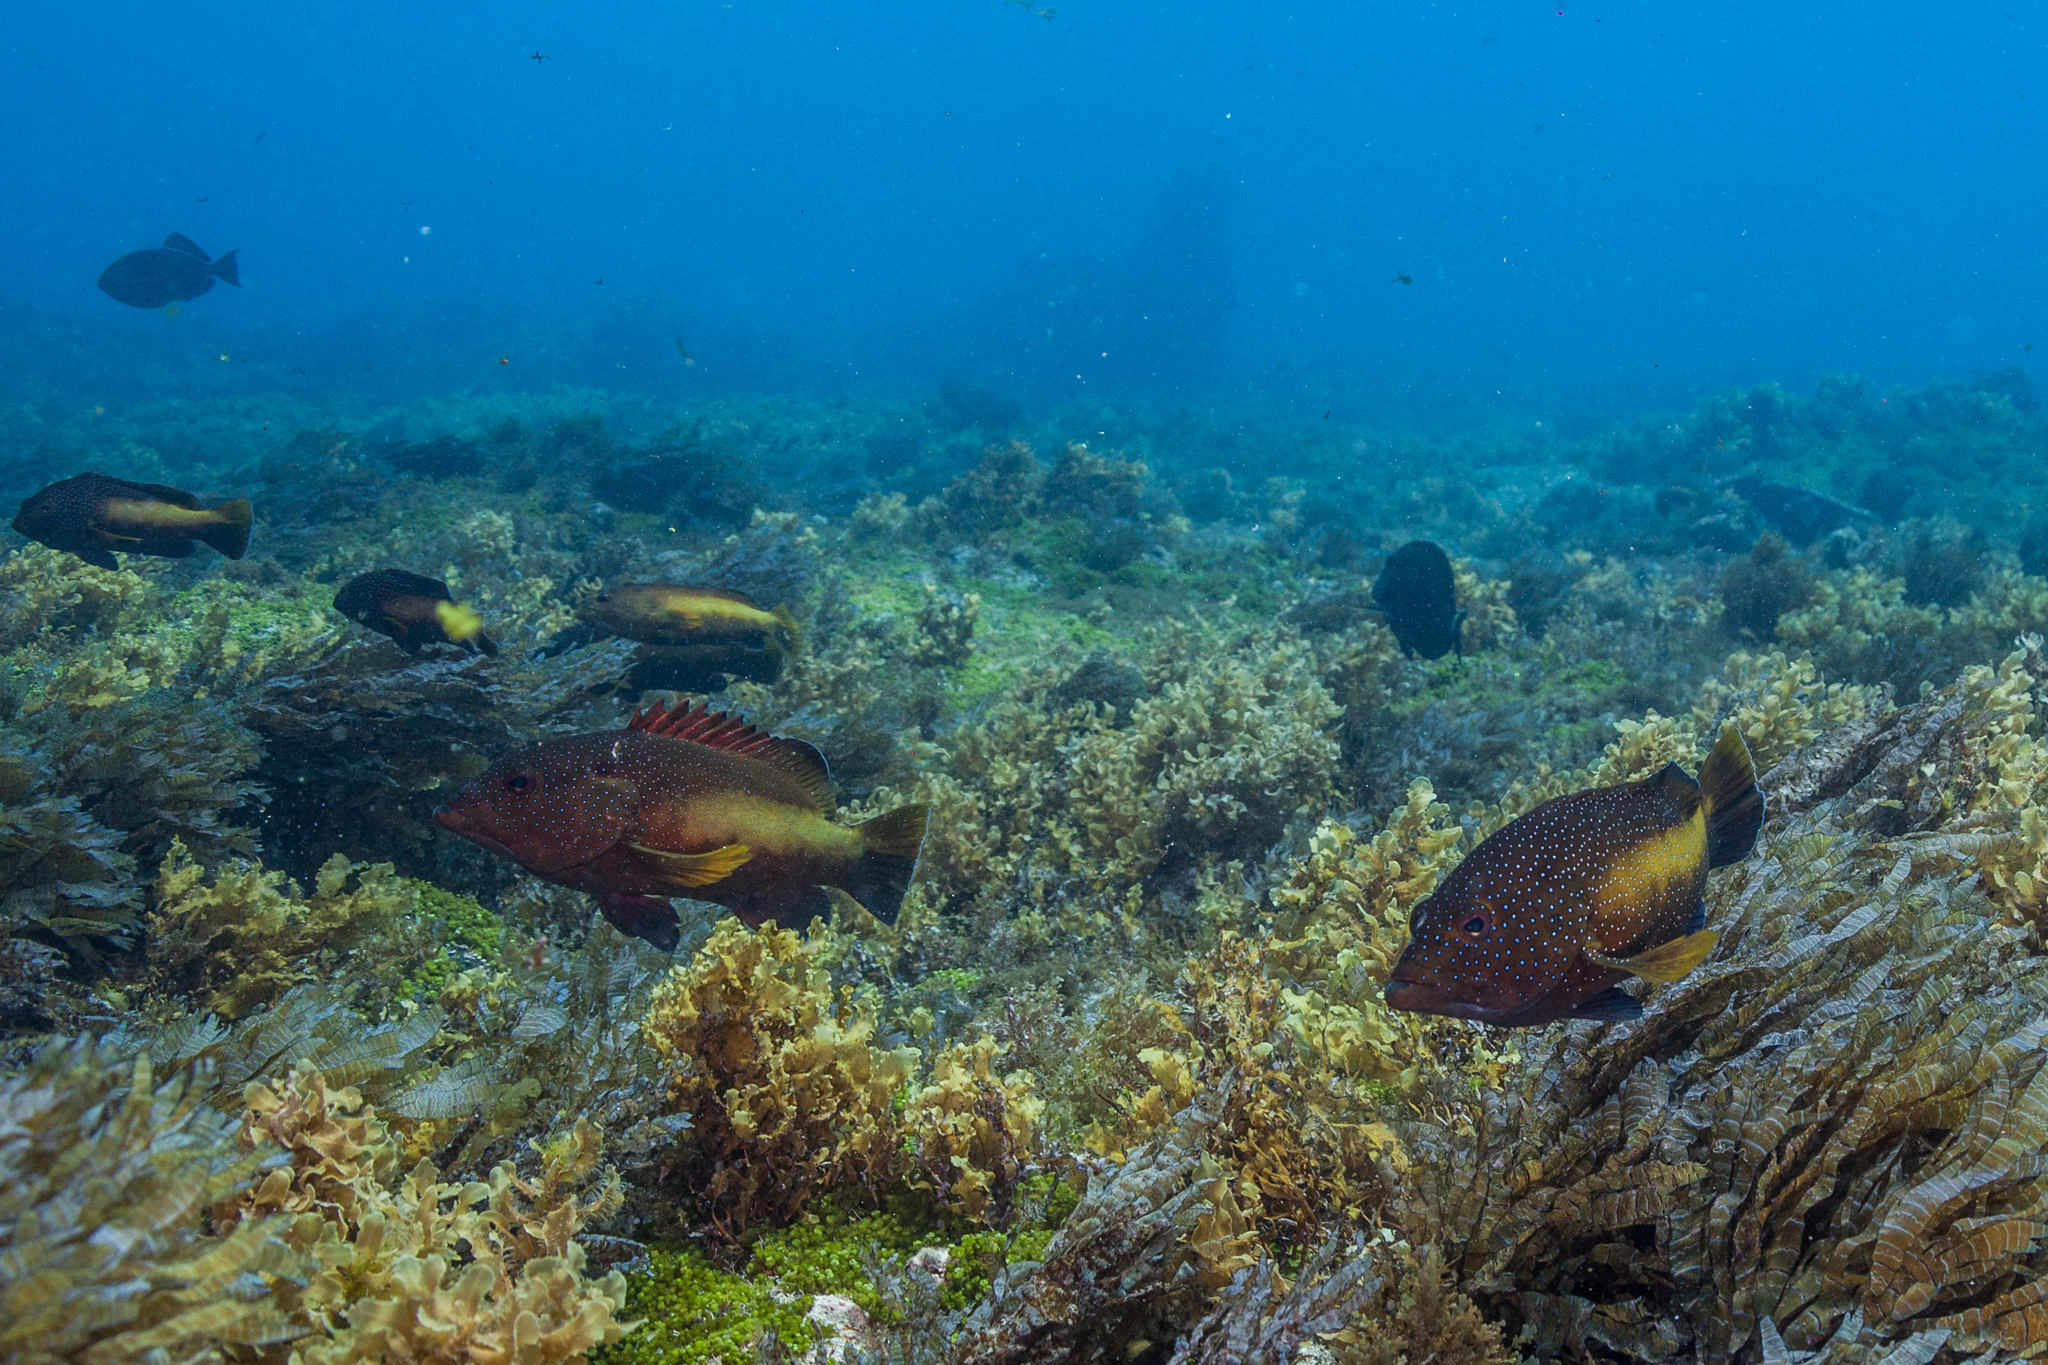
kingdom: Animalia
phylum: Chordata
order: Perciformes
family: Serranidae
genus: Cephalopholis
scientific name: Cephalopholis fulva
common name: Butterfish
